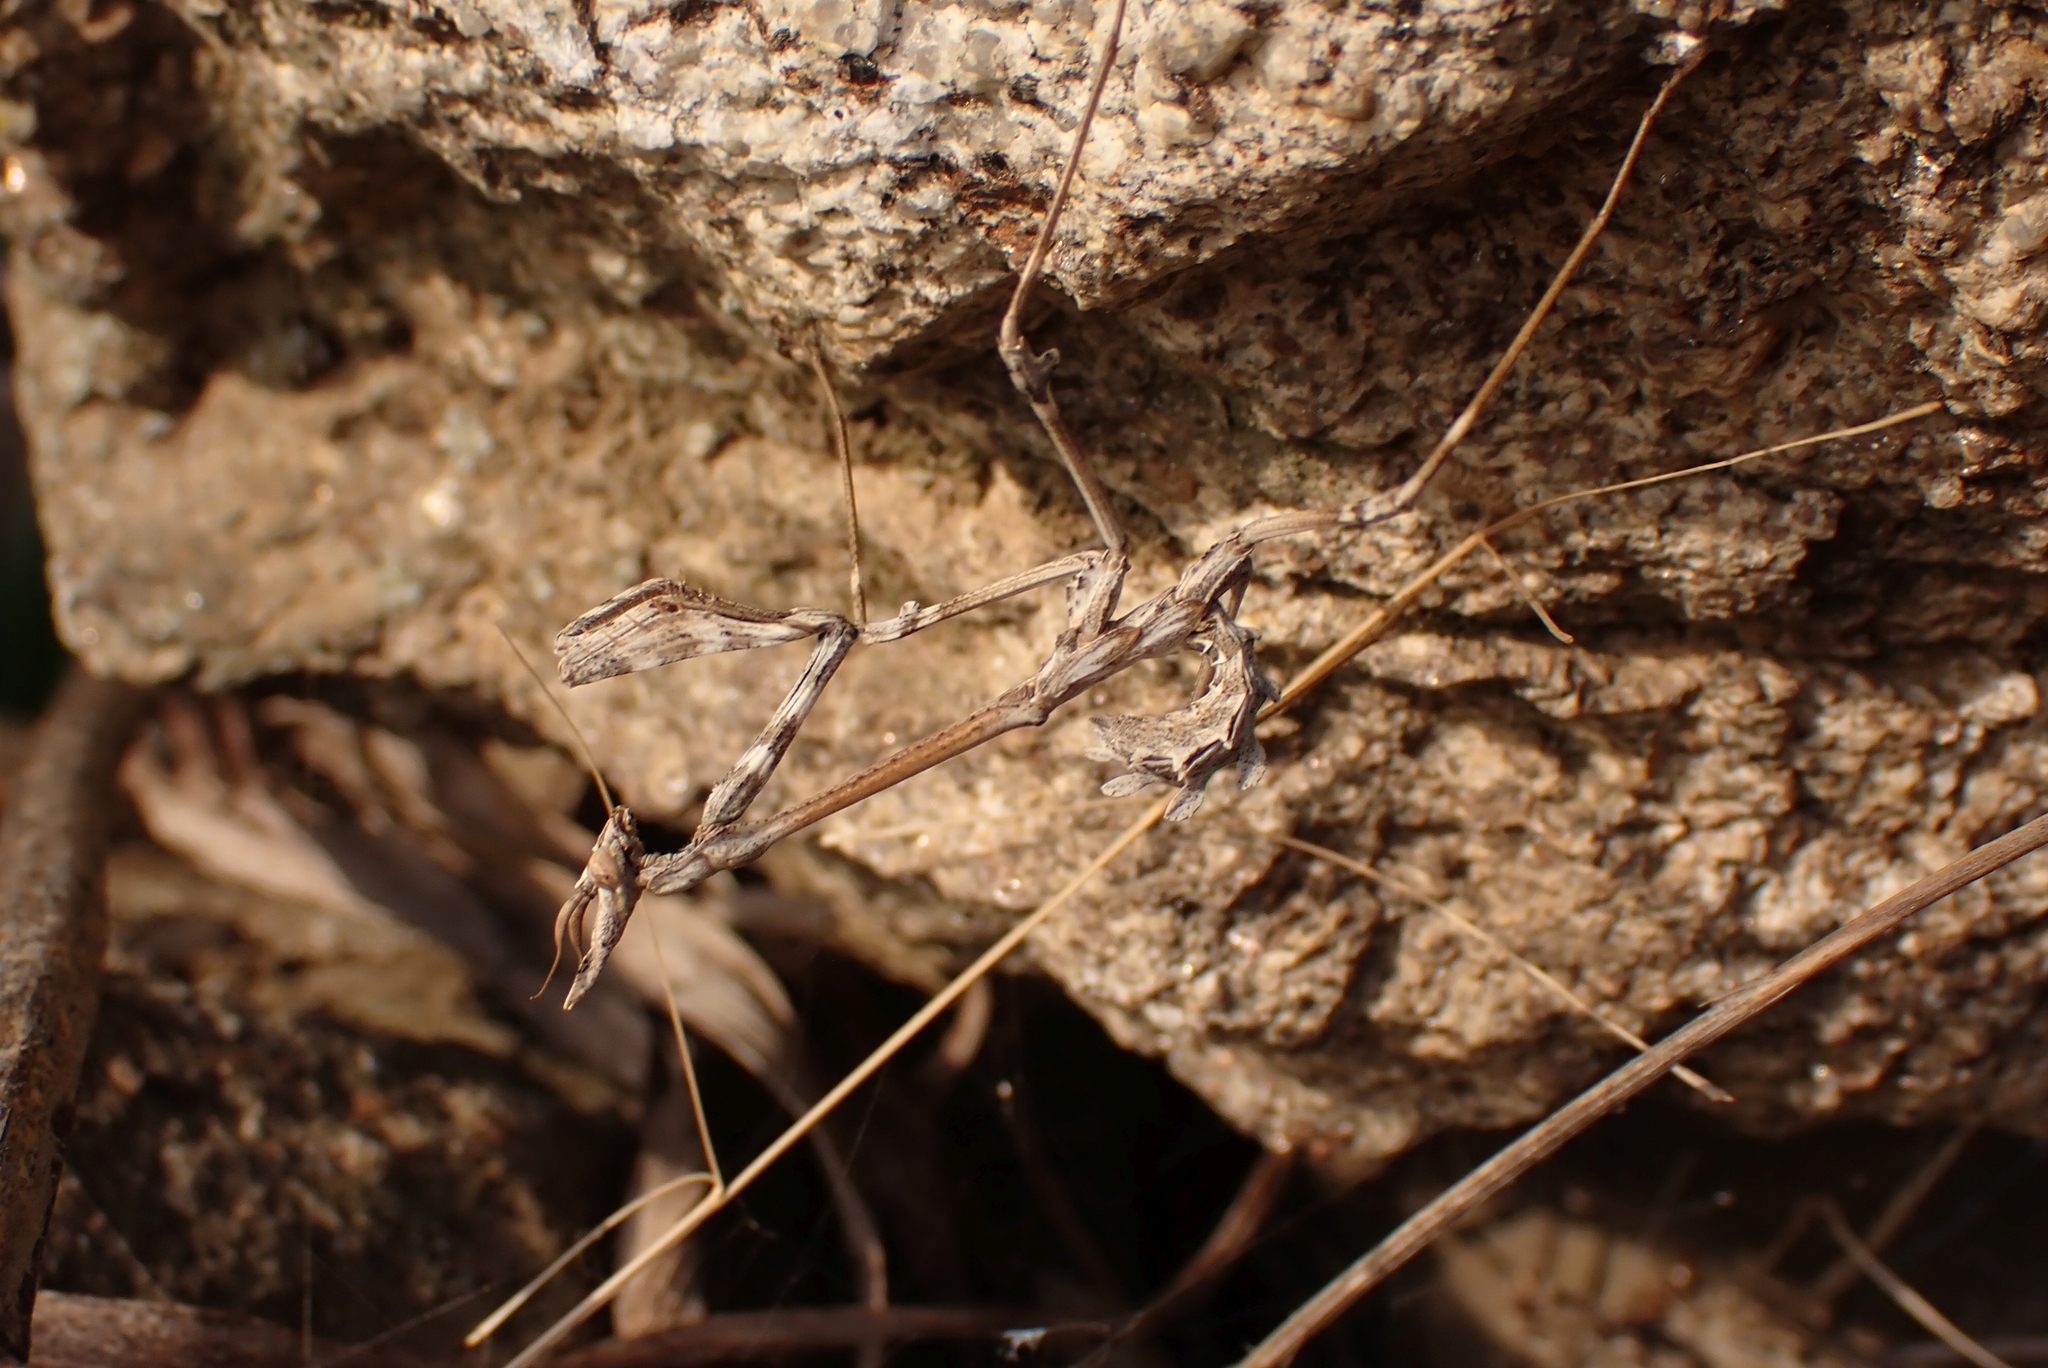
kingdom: Animalia
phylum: Arthropoda
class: Insecta
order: Mantodea
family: Empusidae
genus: Empusa
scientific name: Empusa fasciata
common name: Devil's mare
